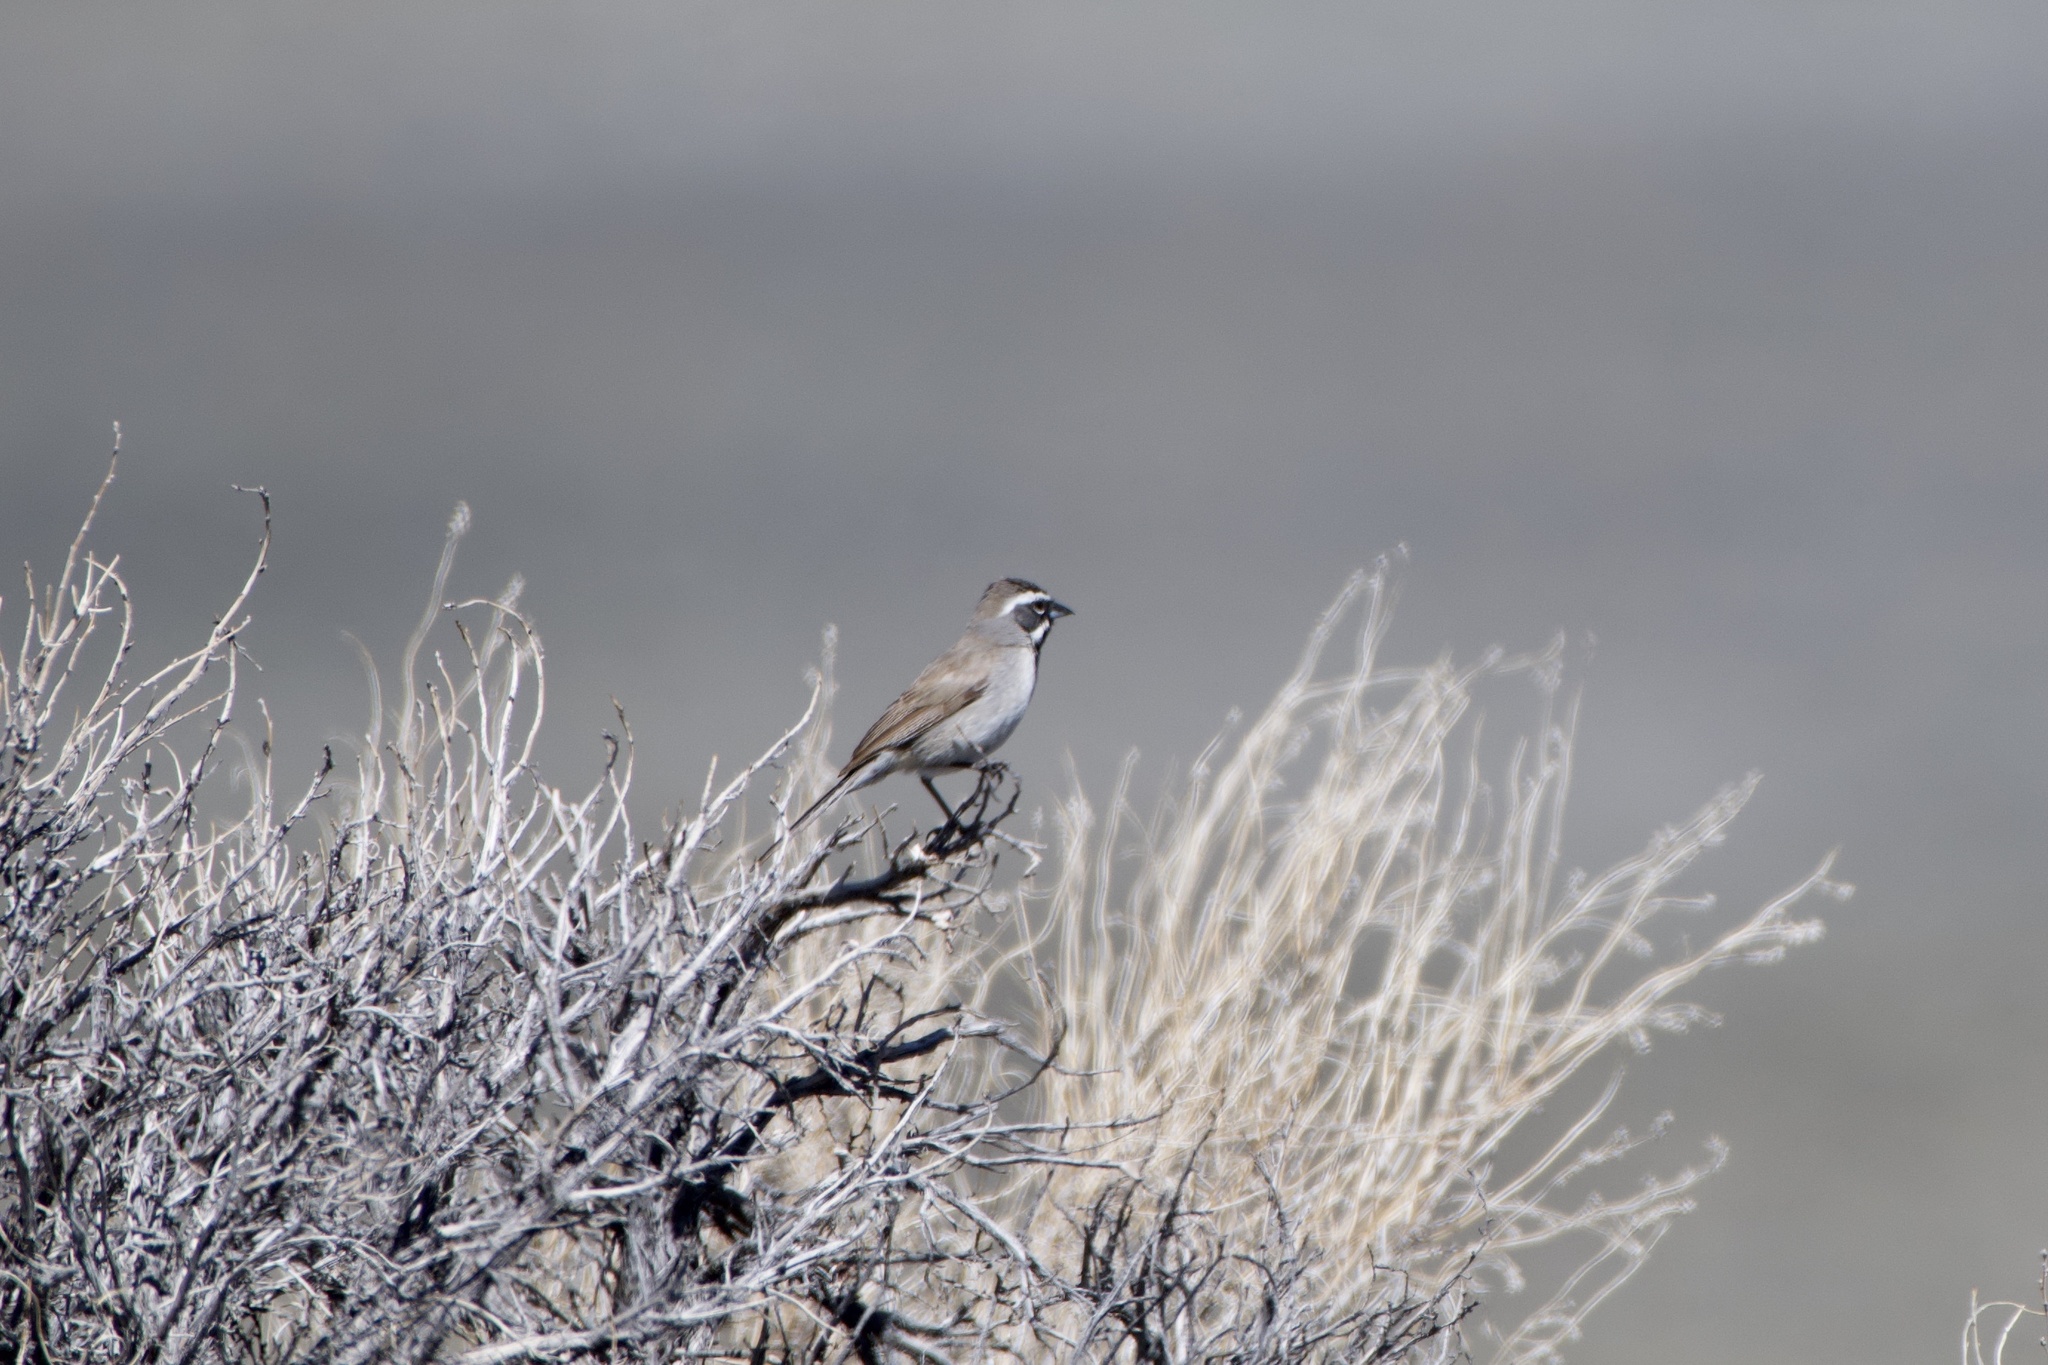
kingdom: Animalia
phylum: Chordata
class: Aves
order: Passeriformes
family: Passerellidae
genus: Amphispiza
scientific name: Amphispiza bilineata
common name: Black-throated sparrow
